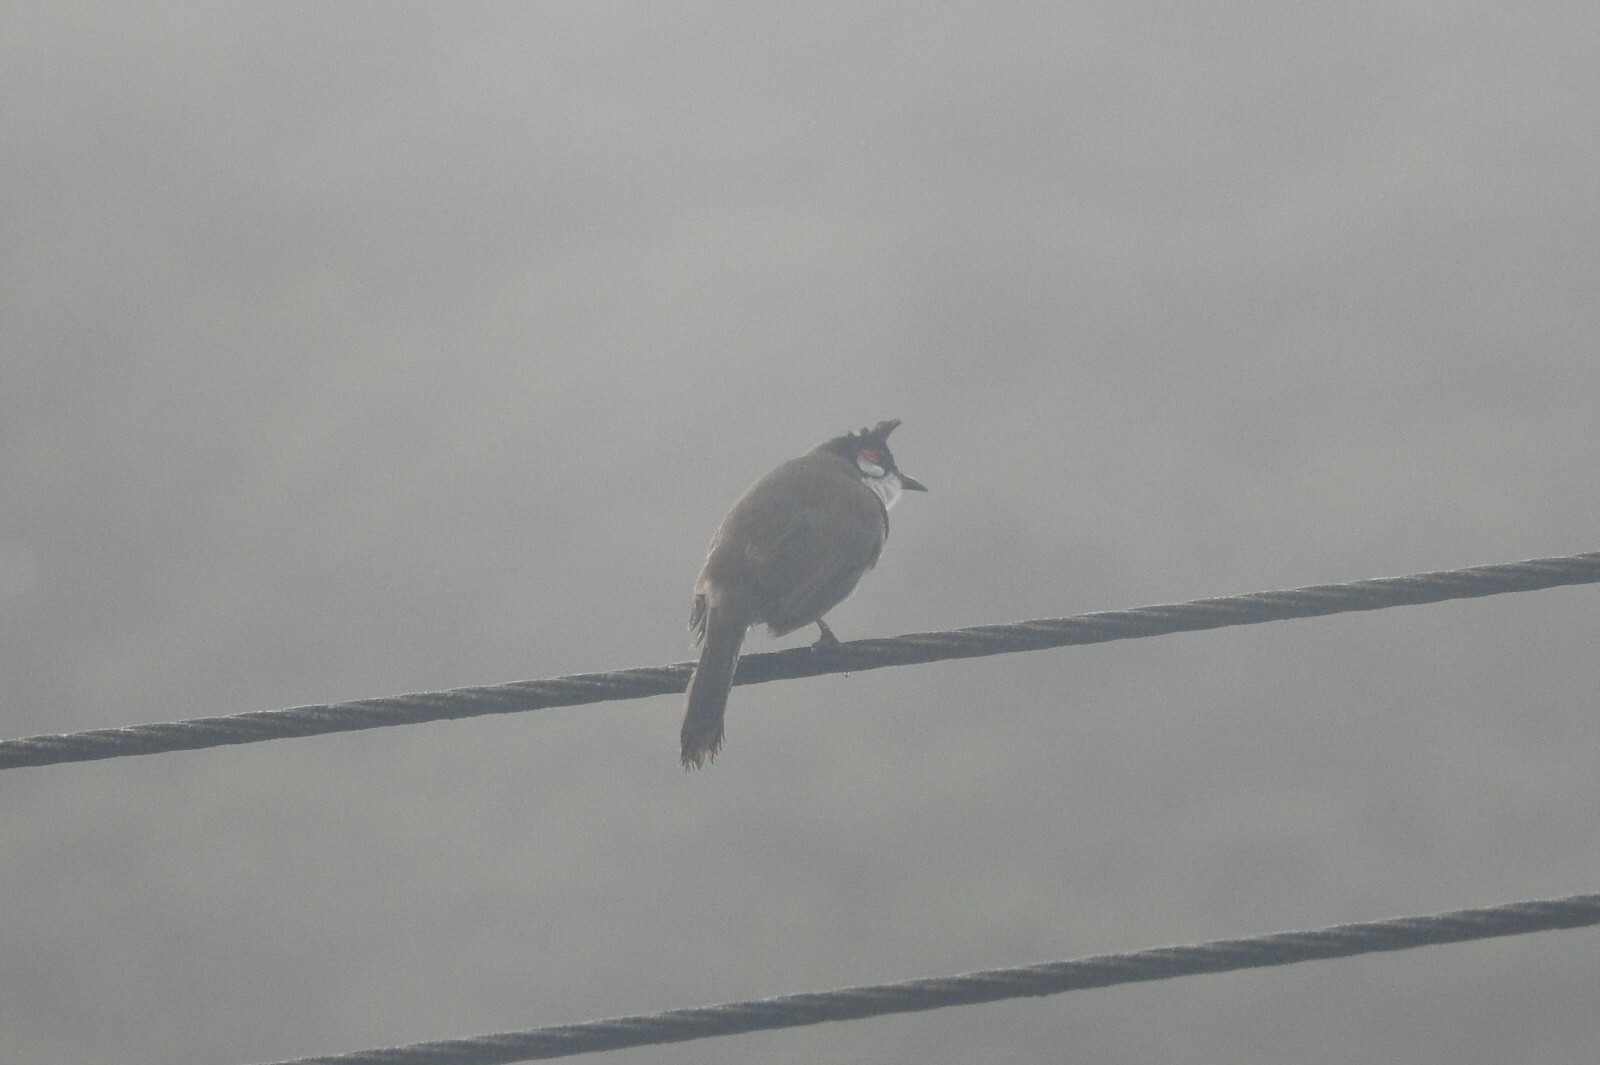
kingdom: Animalia
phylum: Chordata
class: Aves
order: Passeriformes
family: Pycnonotidae
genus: Pycnonotus
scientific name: Pycnonotus jocosus
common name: Red-whiskered bulbul
